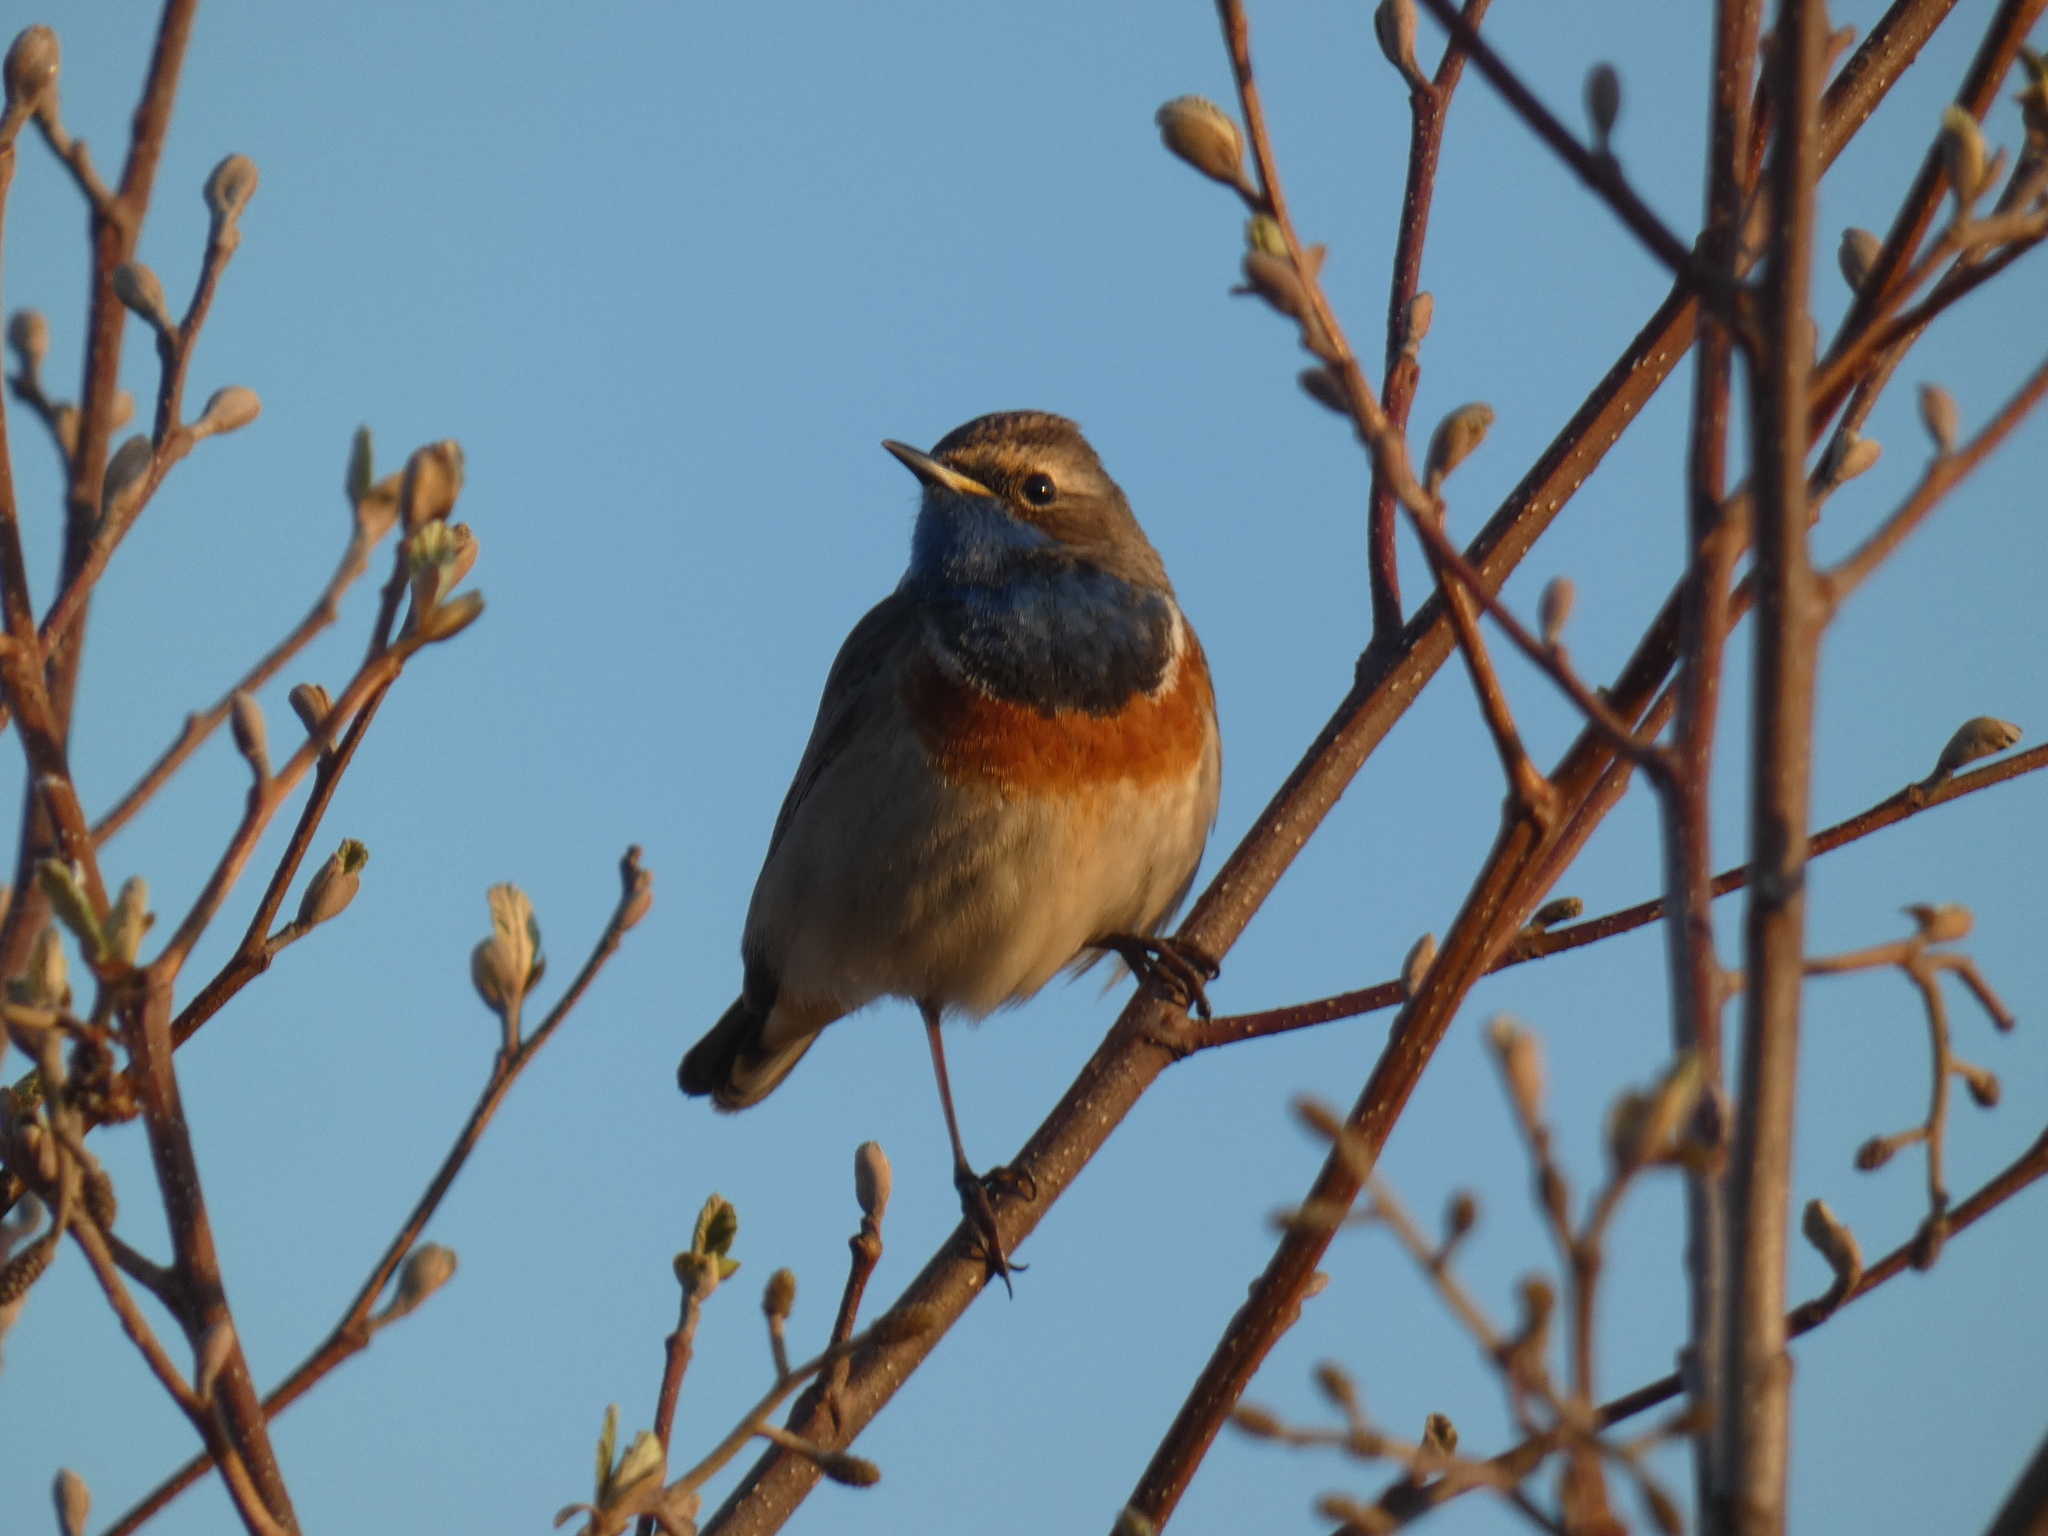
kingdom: Animalia
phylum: Chordata
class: Aves
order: Passeriformes
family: Muscicapidae
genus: Luscinia
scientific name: Luscinia svecica
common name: Bluethroat
